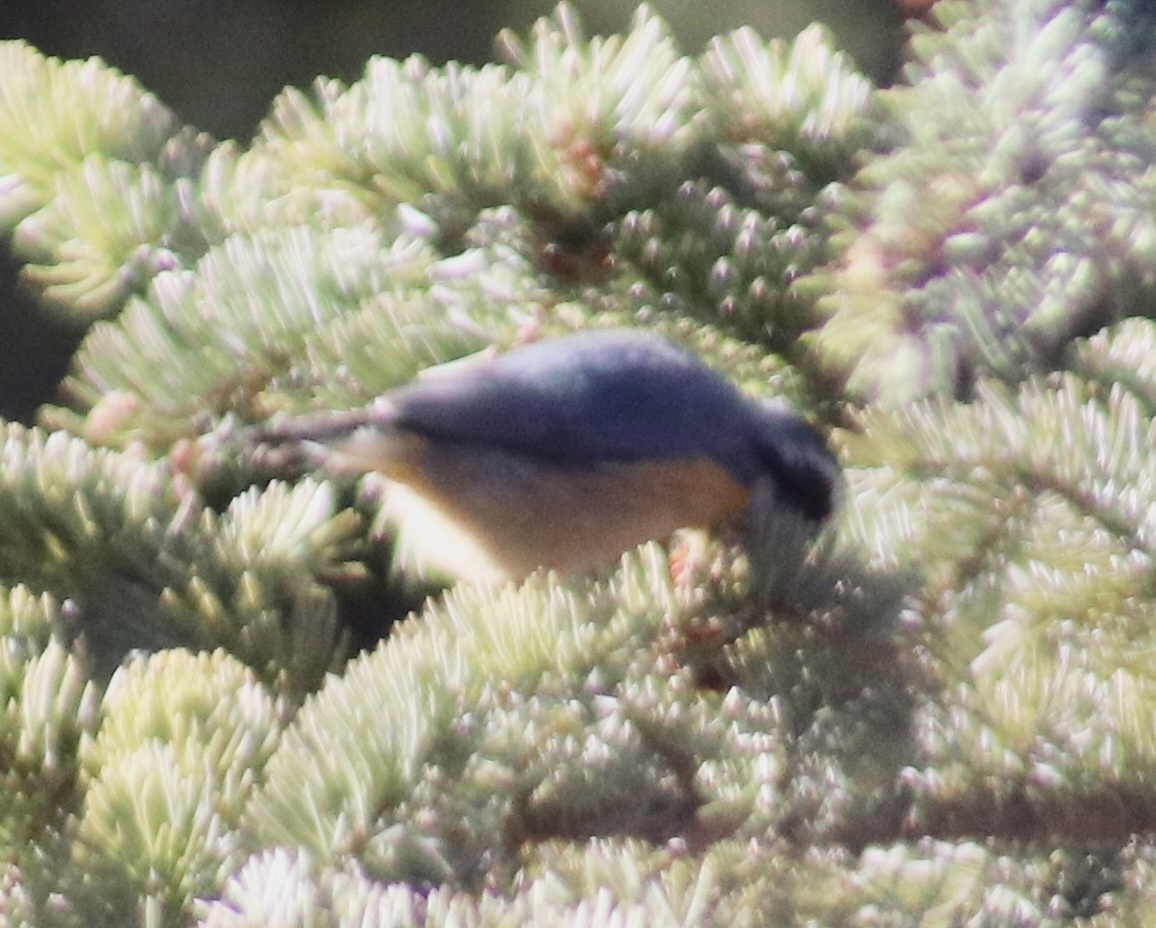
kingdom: Animalia
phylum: Chordata
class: Aves
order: Passeriformes
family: Sittidae
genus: Sitta
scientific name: Sitta canadensis
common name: Red-breasted nuthatch
